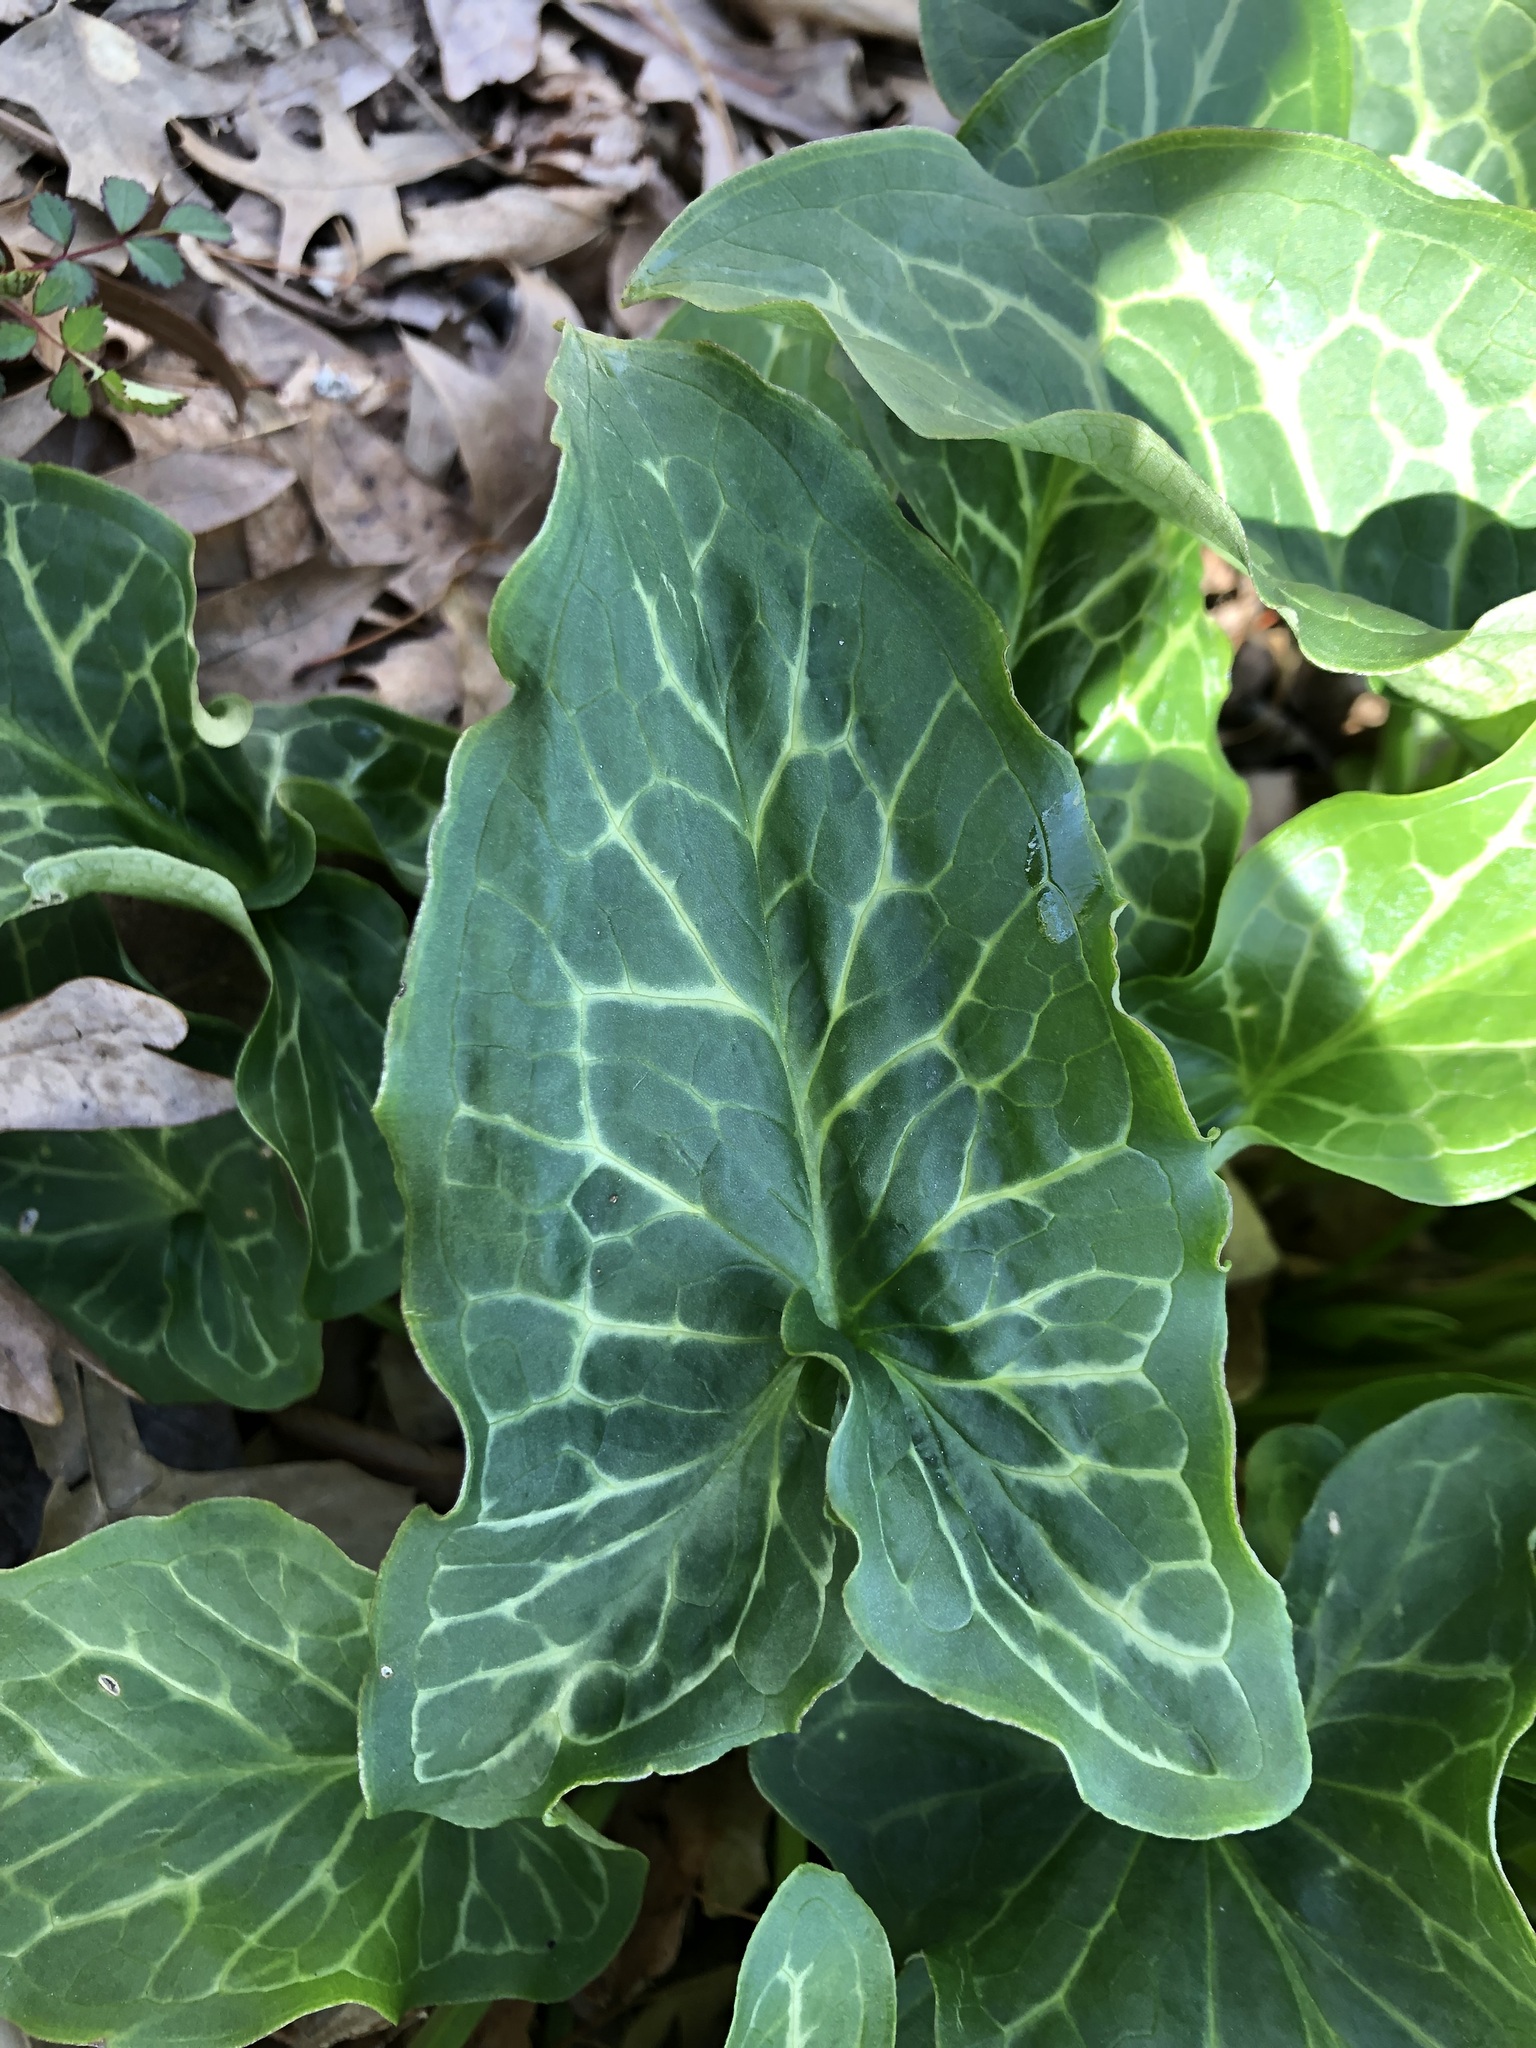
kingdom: Plantae
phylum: Tracheophyta
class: Liliopsida
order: Alismatales
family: Araceae
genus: Arum
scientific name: Arum italicum
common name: Italian lords-and-ladies
